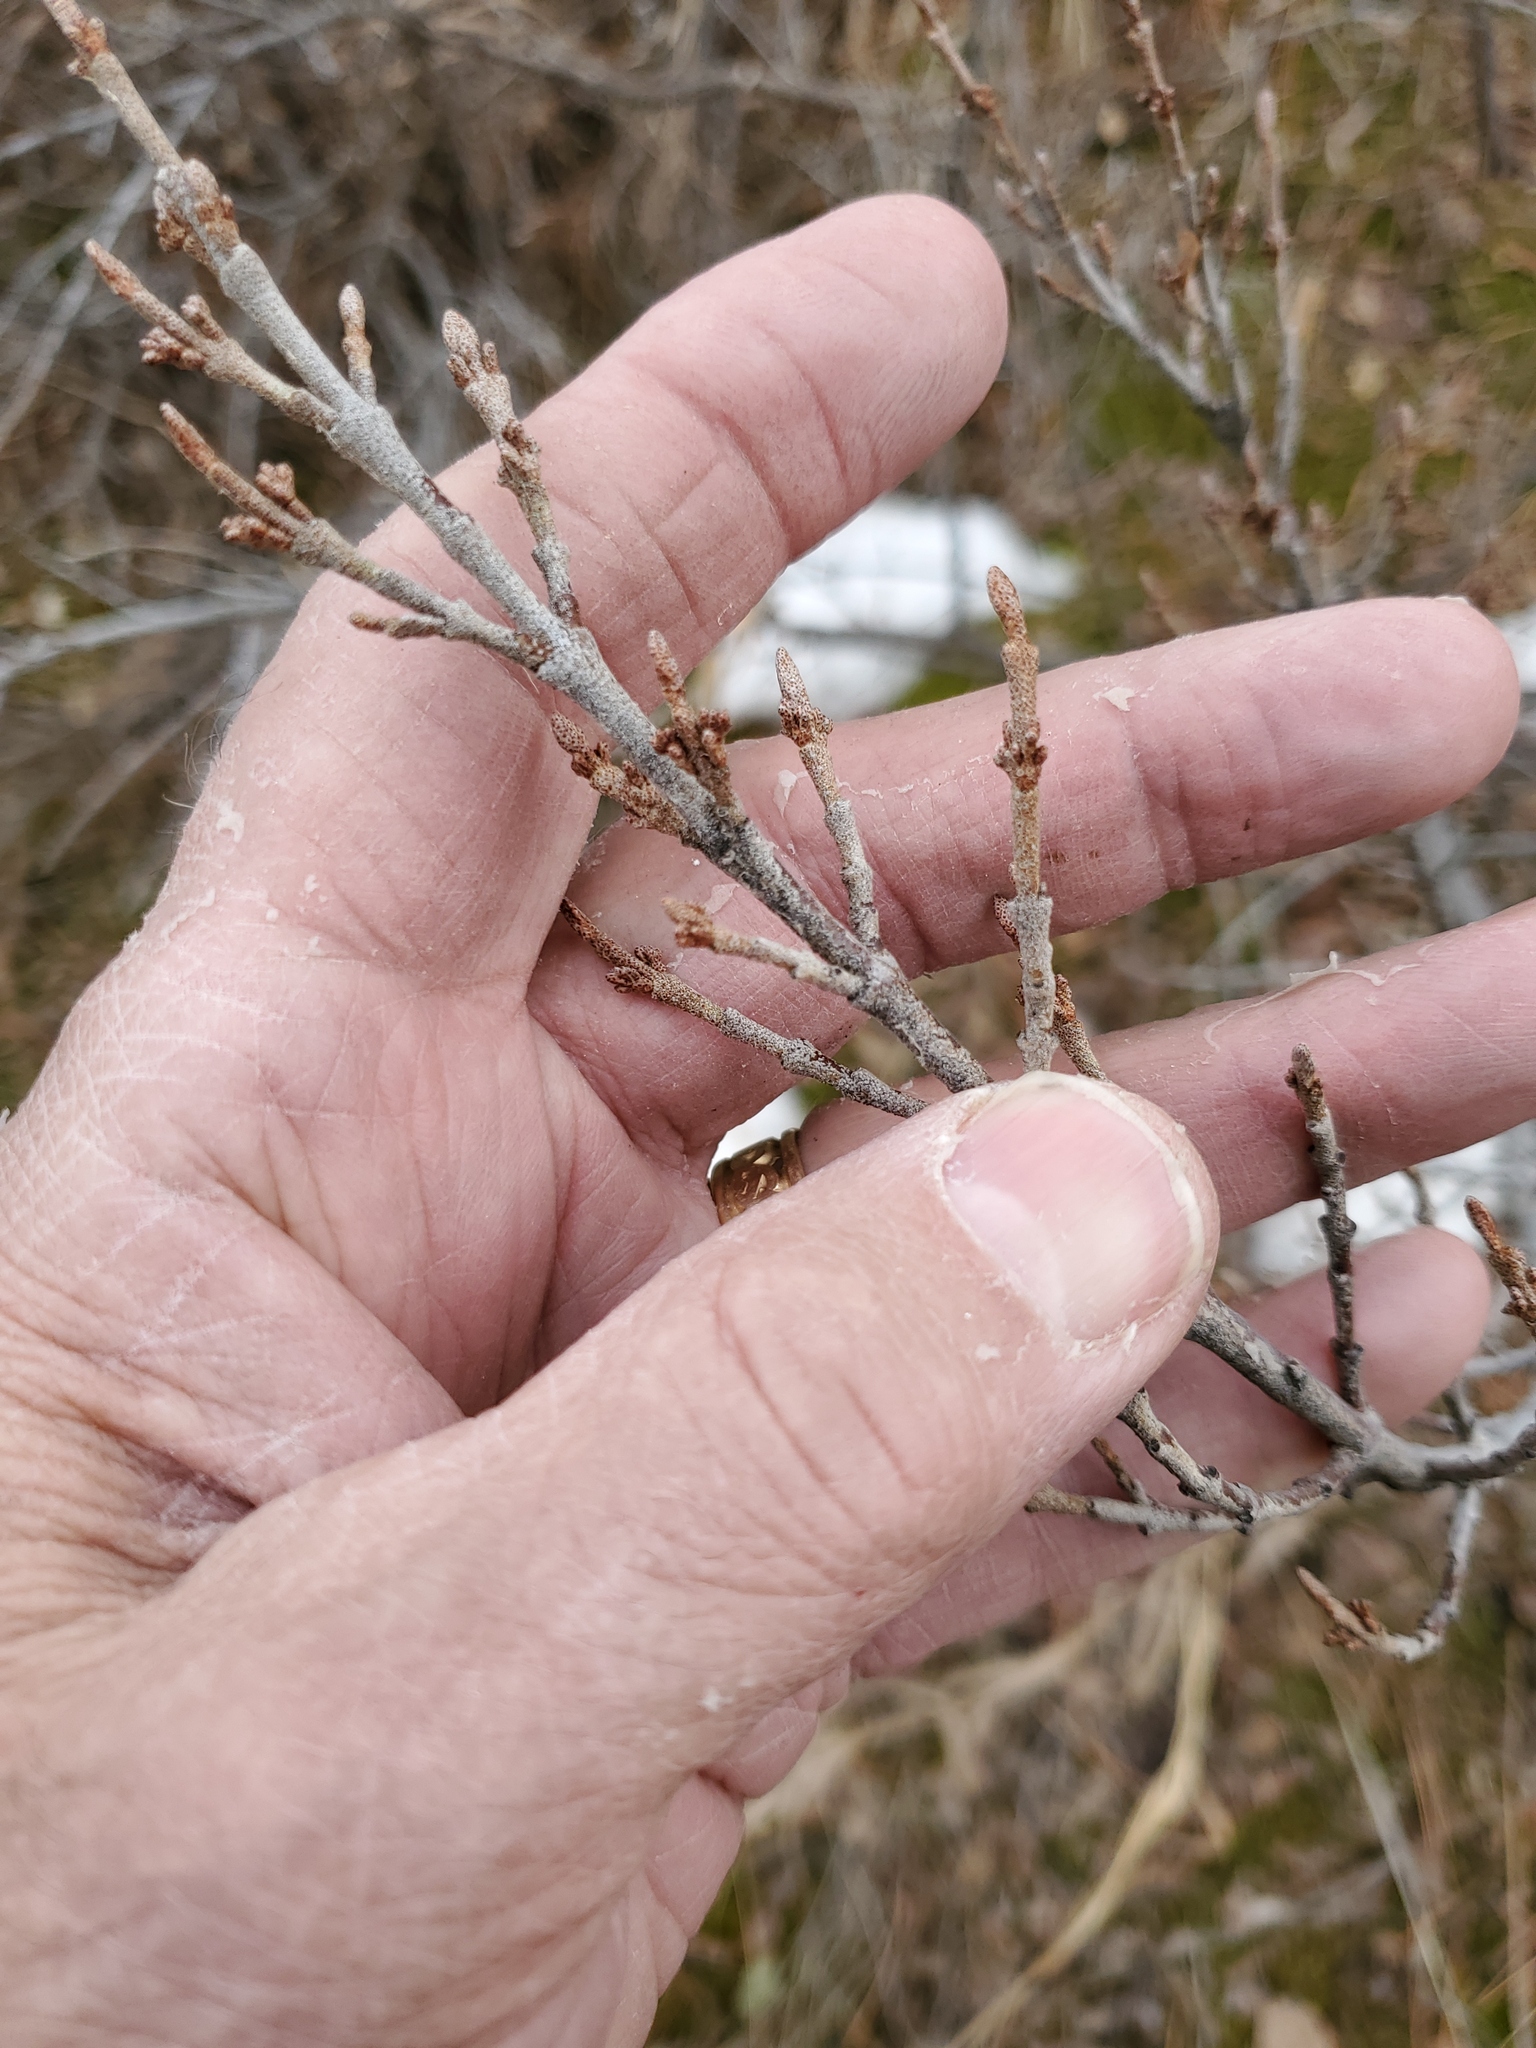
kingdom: Plantae
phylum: Tracheophyta
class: Magnoliopsida
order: Rosales
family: Elaeagnaceae
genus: Shepherdia
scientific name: Shepherdia canadensis
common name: Soapberry
